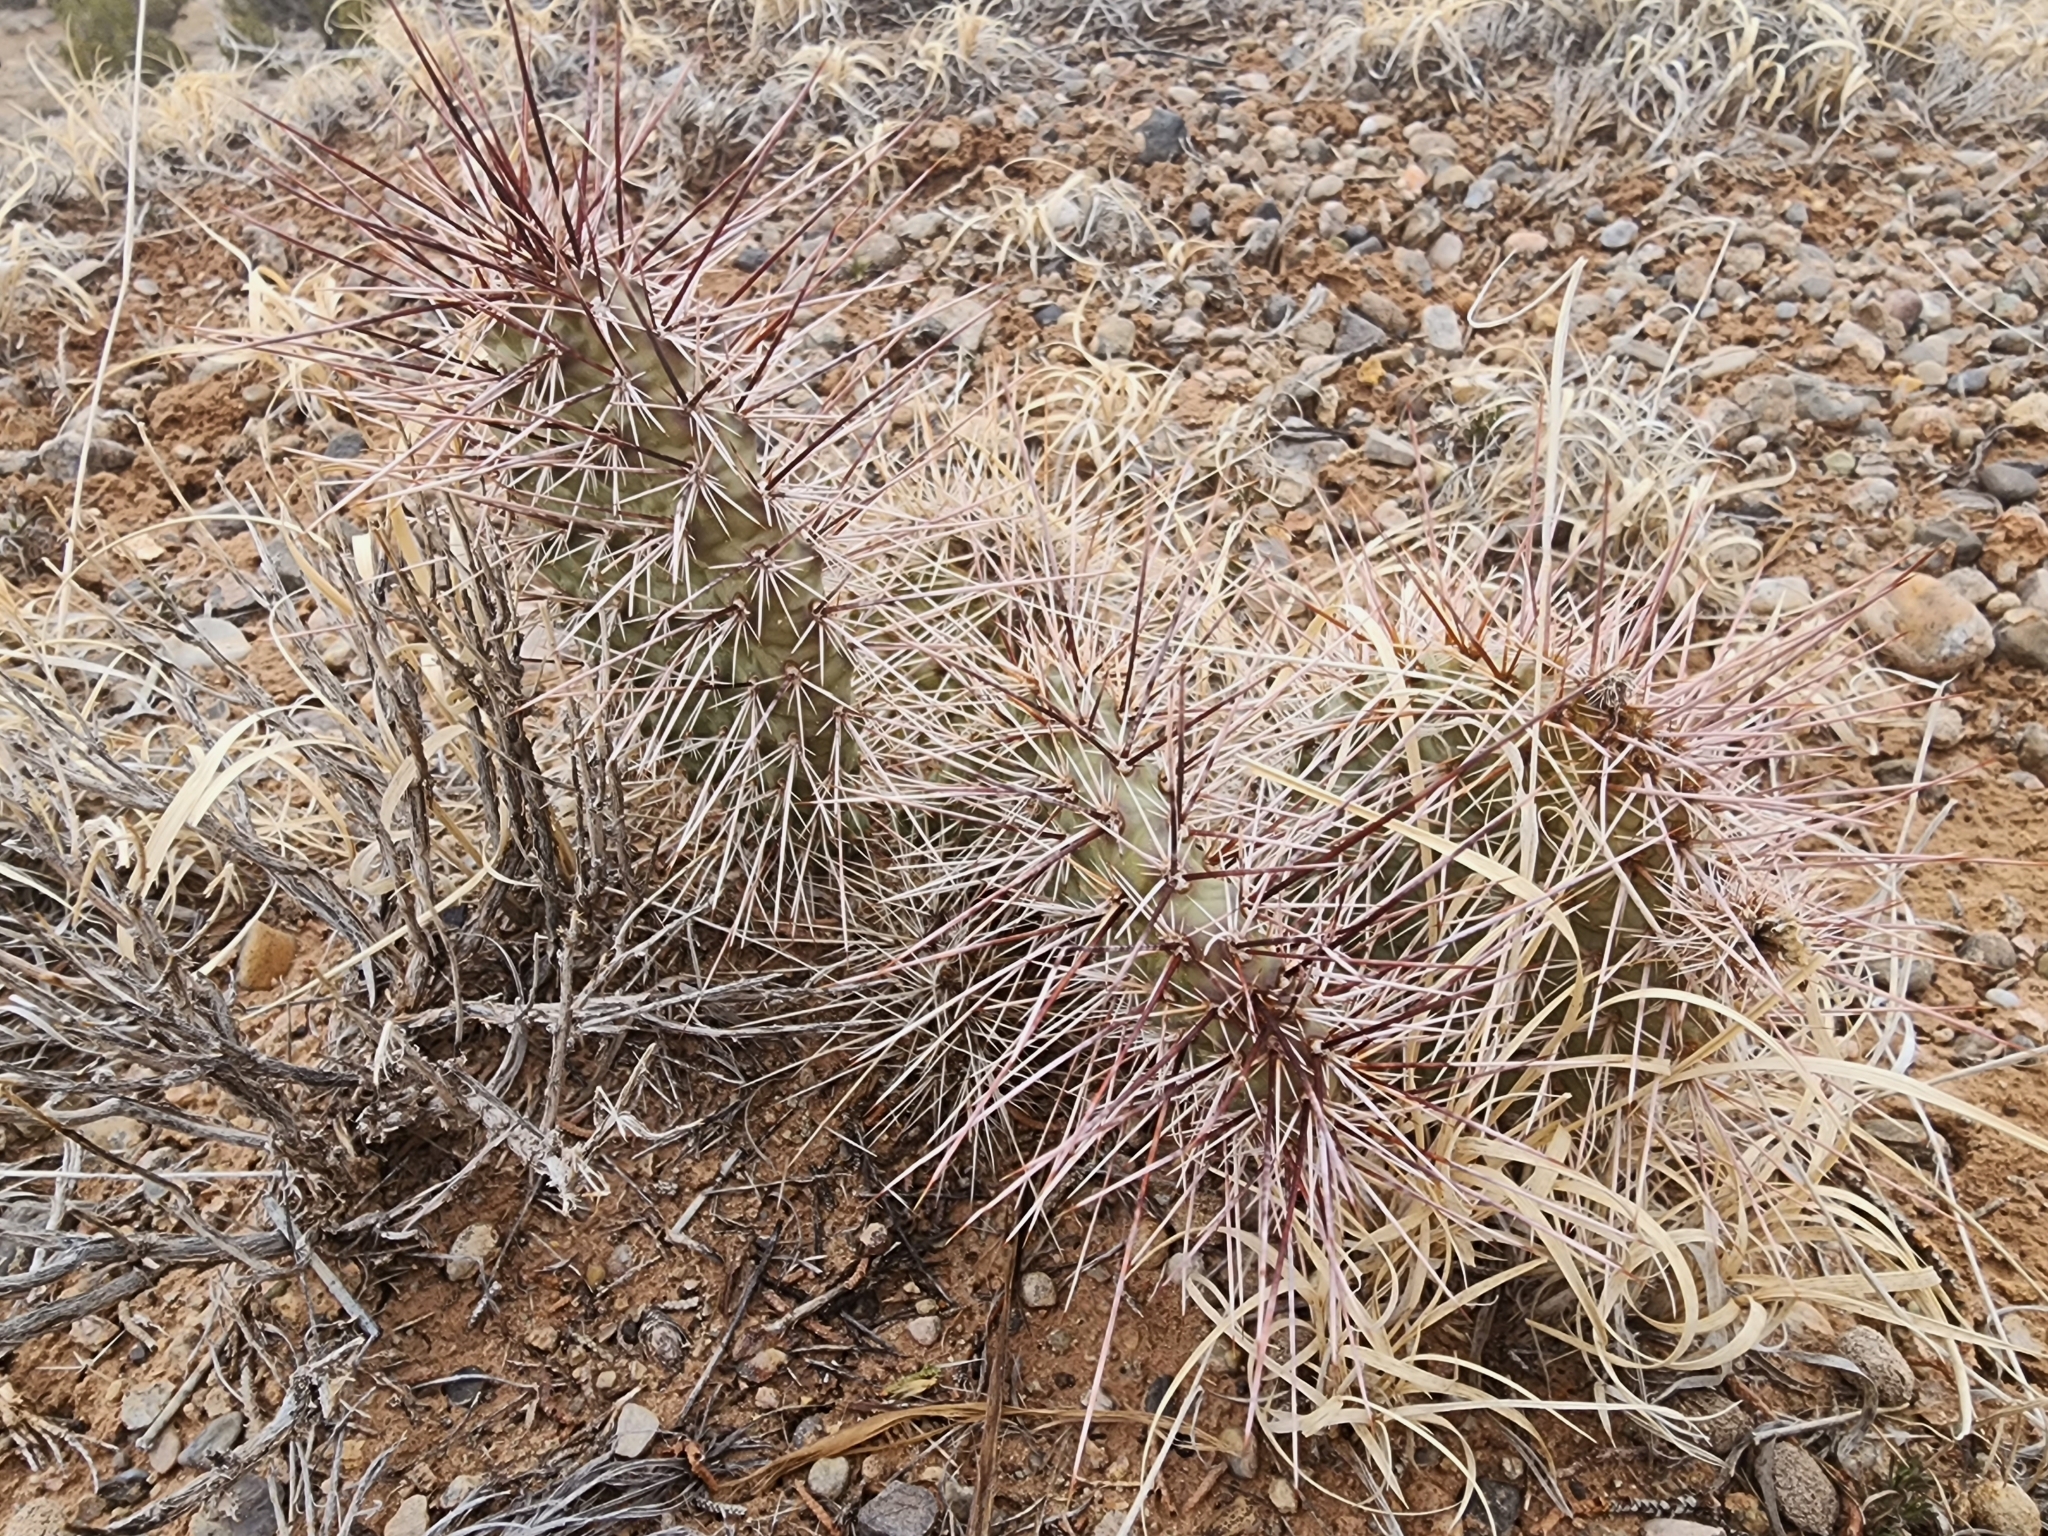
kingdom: Plantae
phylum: Tracheophyta
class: Magnoliopsida
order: Caryophyllales
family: Cactaceae
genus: Opuntia
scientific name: Opuntia polyacantha
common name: Plains prickly-pear
